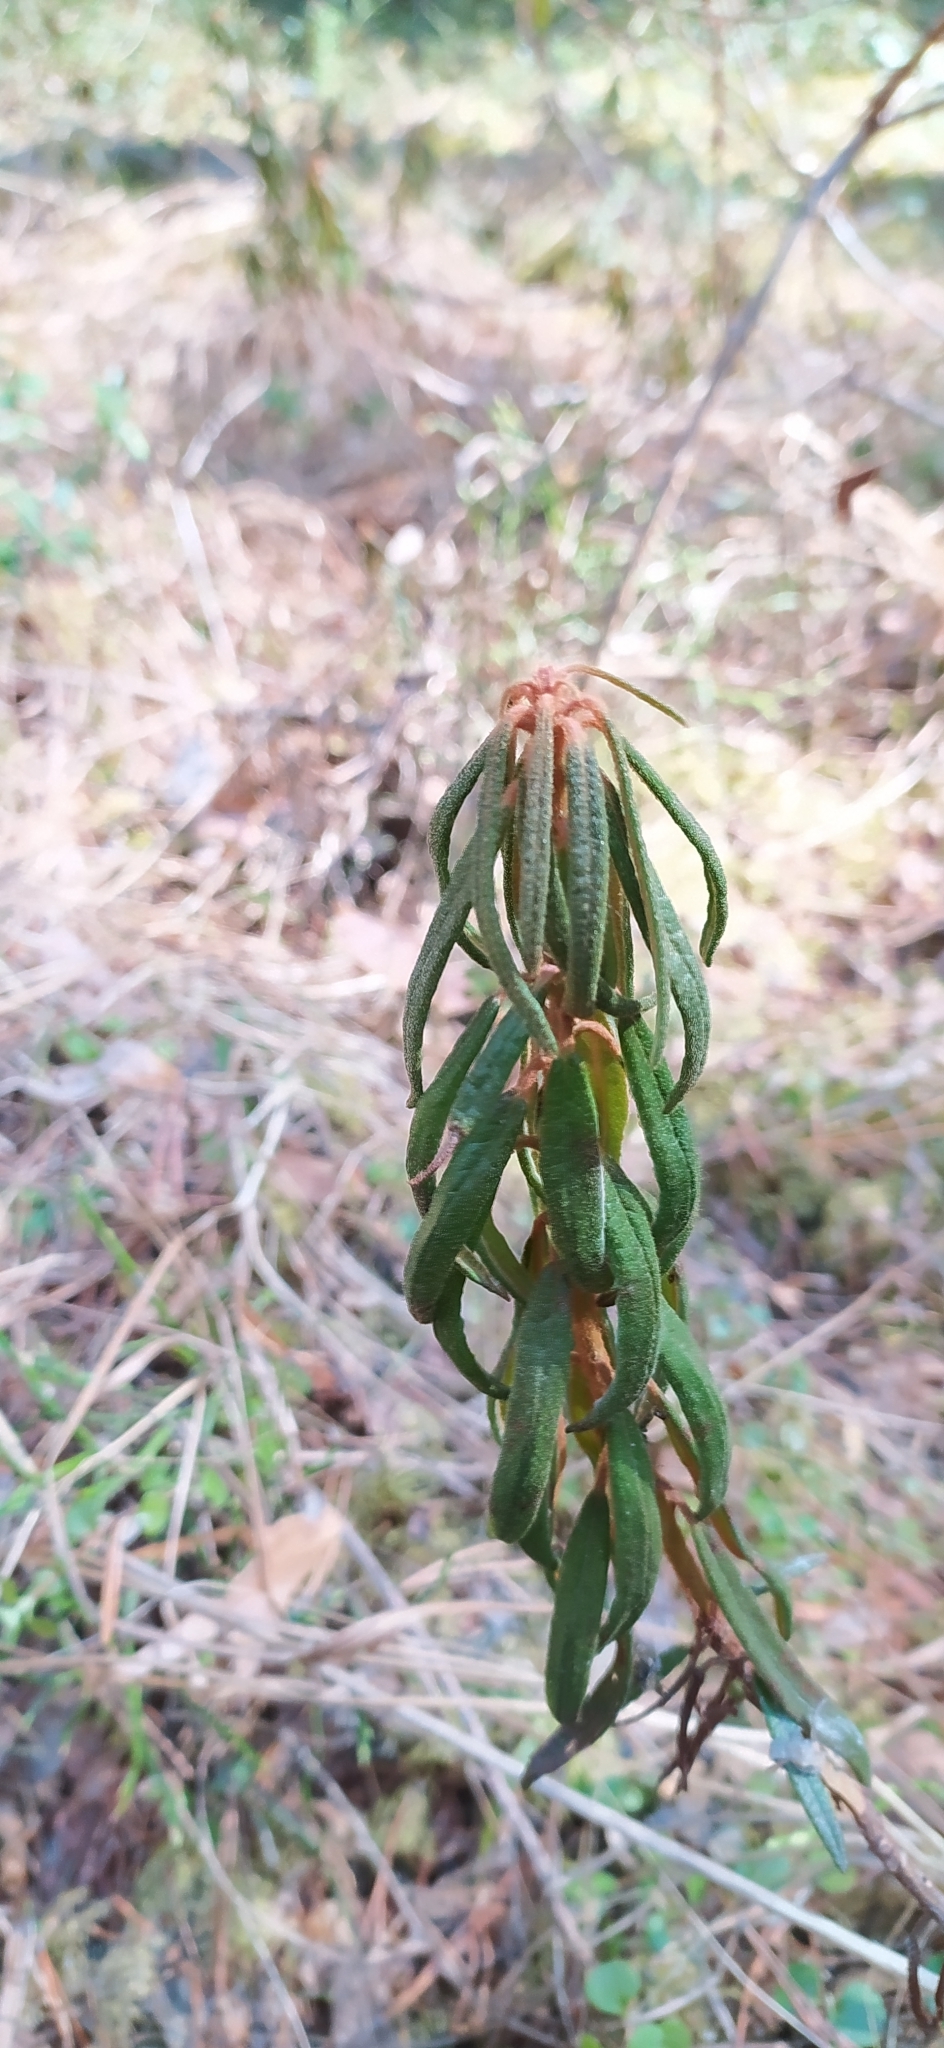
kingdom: Plantae
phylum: Tracheophyta
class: Magnoliopsida
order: Ericales
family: Ericaceae
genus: Rhododendron
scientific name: Rhododendron tomentosum
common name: Marsh labrador tea
